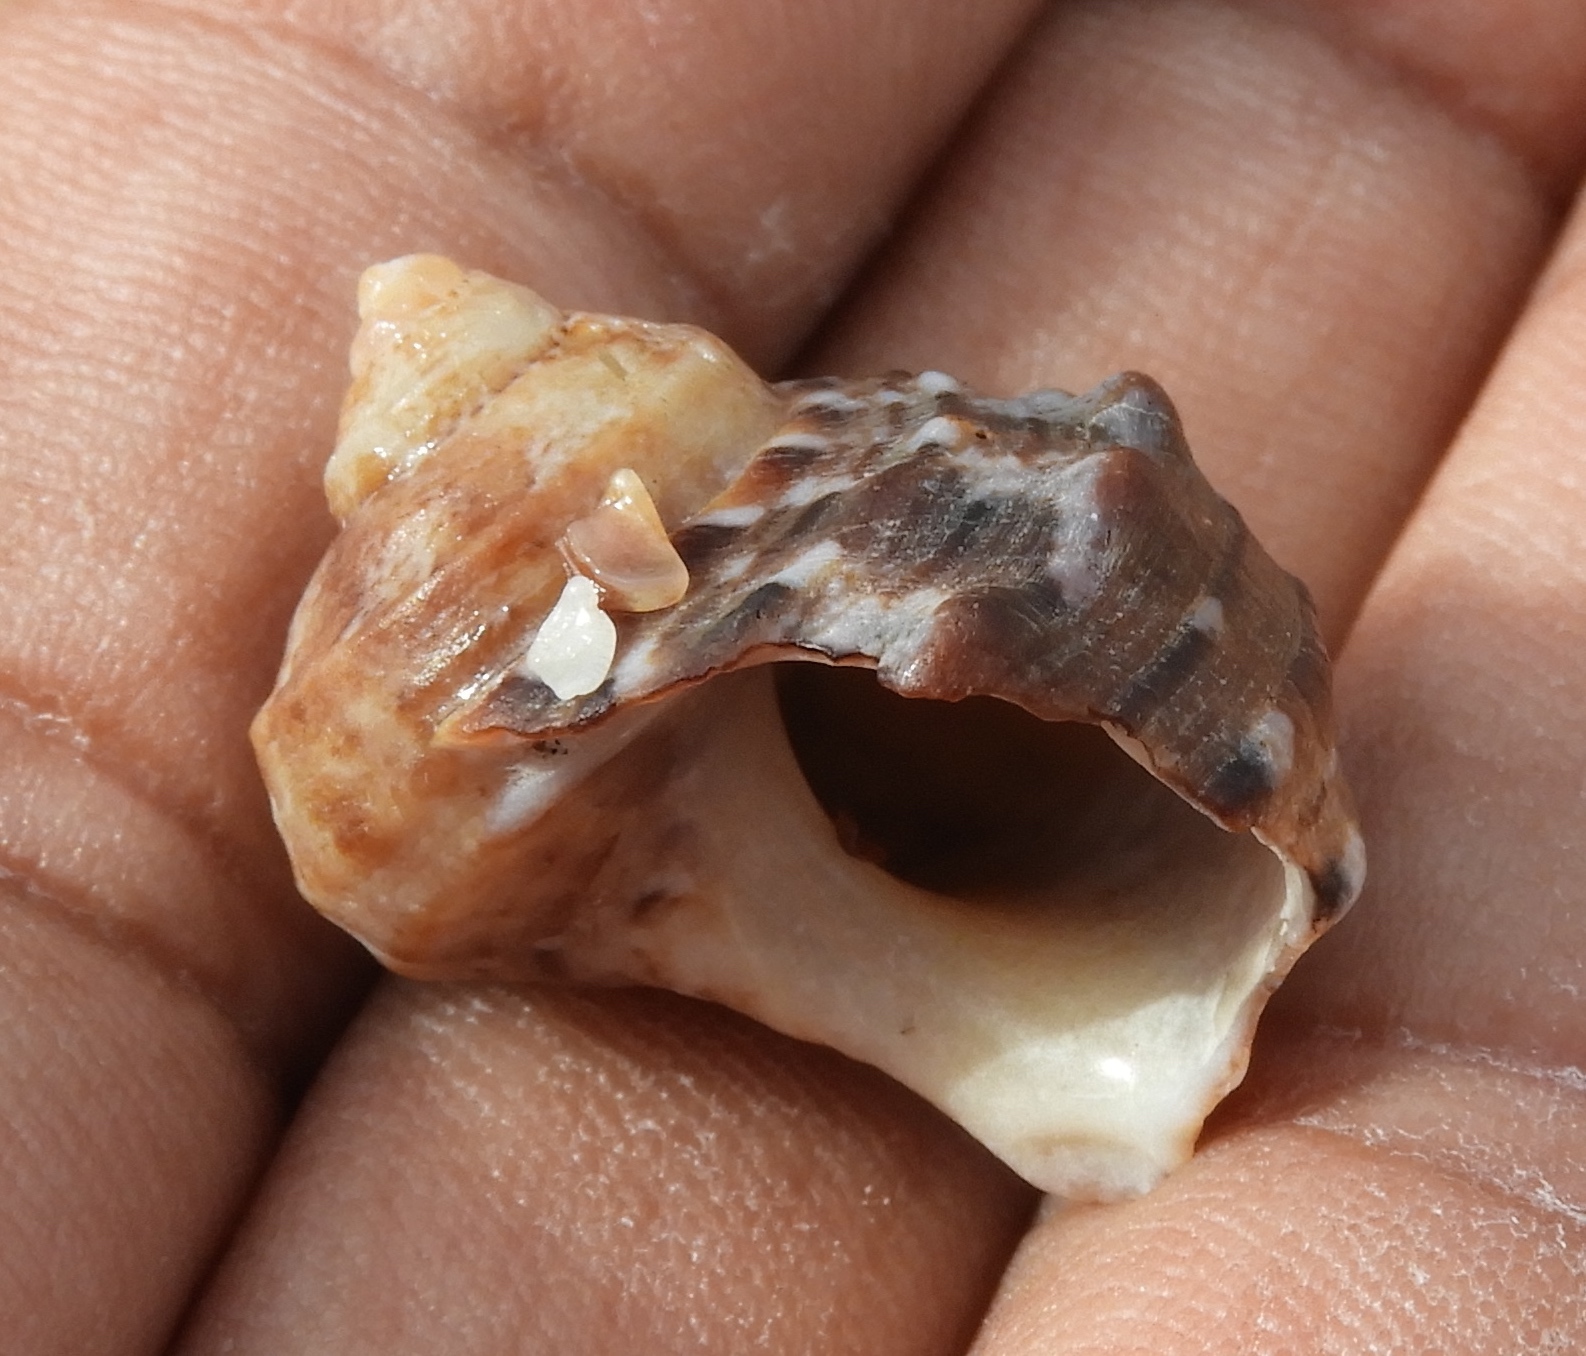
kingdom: Animalia
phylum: Mollusca
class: Gastropoda
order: Trochida
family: Turbinidae
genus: Turbo
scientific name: Turbo fluctuosus
